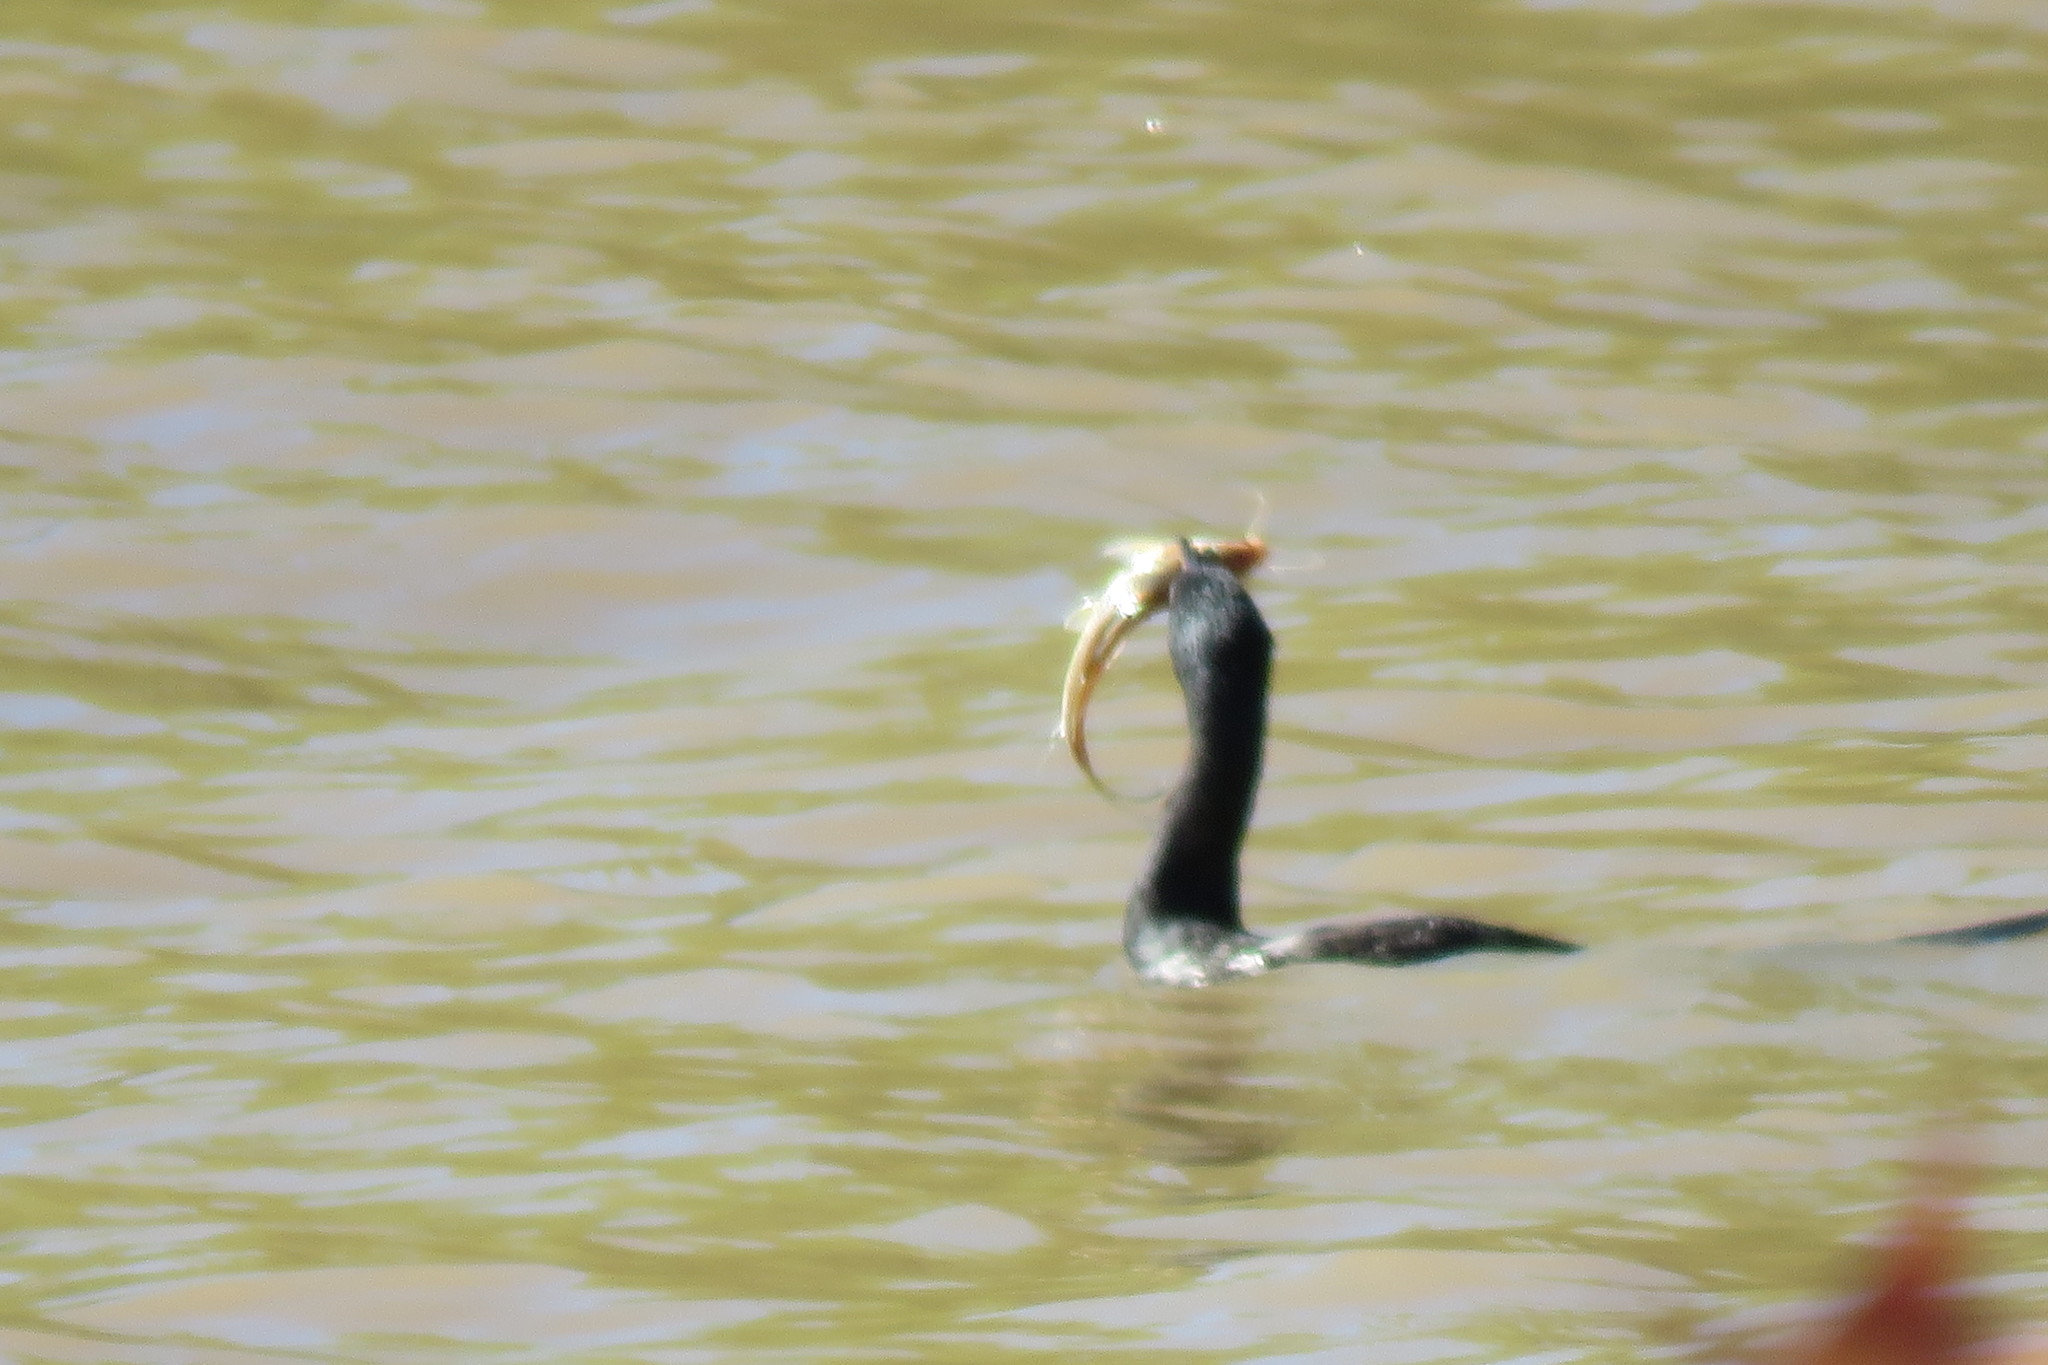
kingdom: Animalia
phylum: Chordata
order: Siluriformes
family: Pimelodidae
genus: Iheringichthys
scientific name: Iheringichthys labrosus
